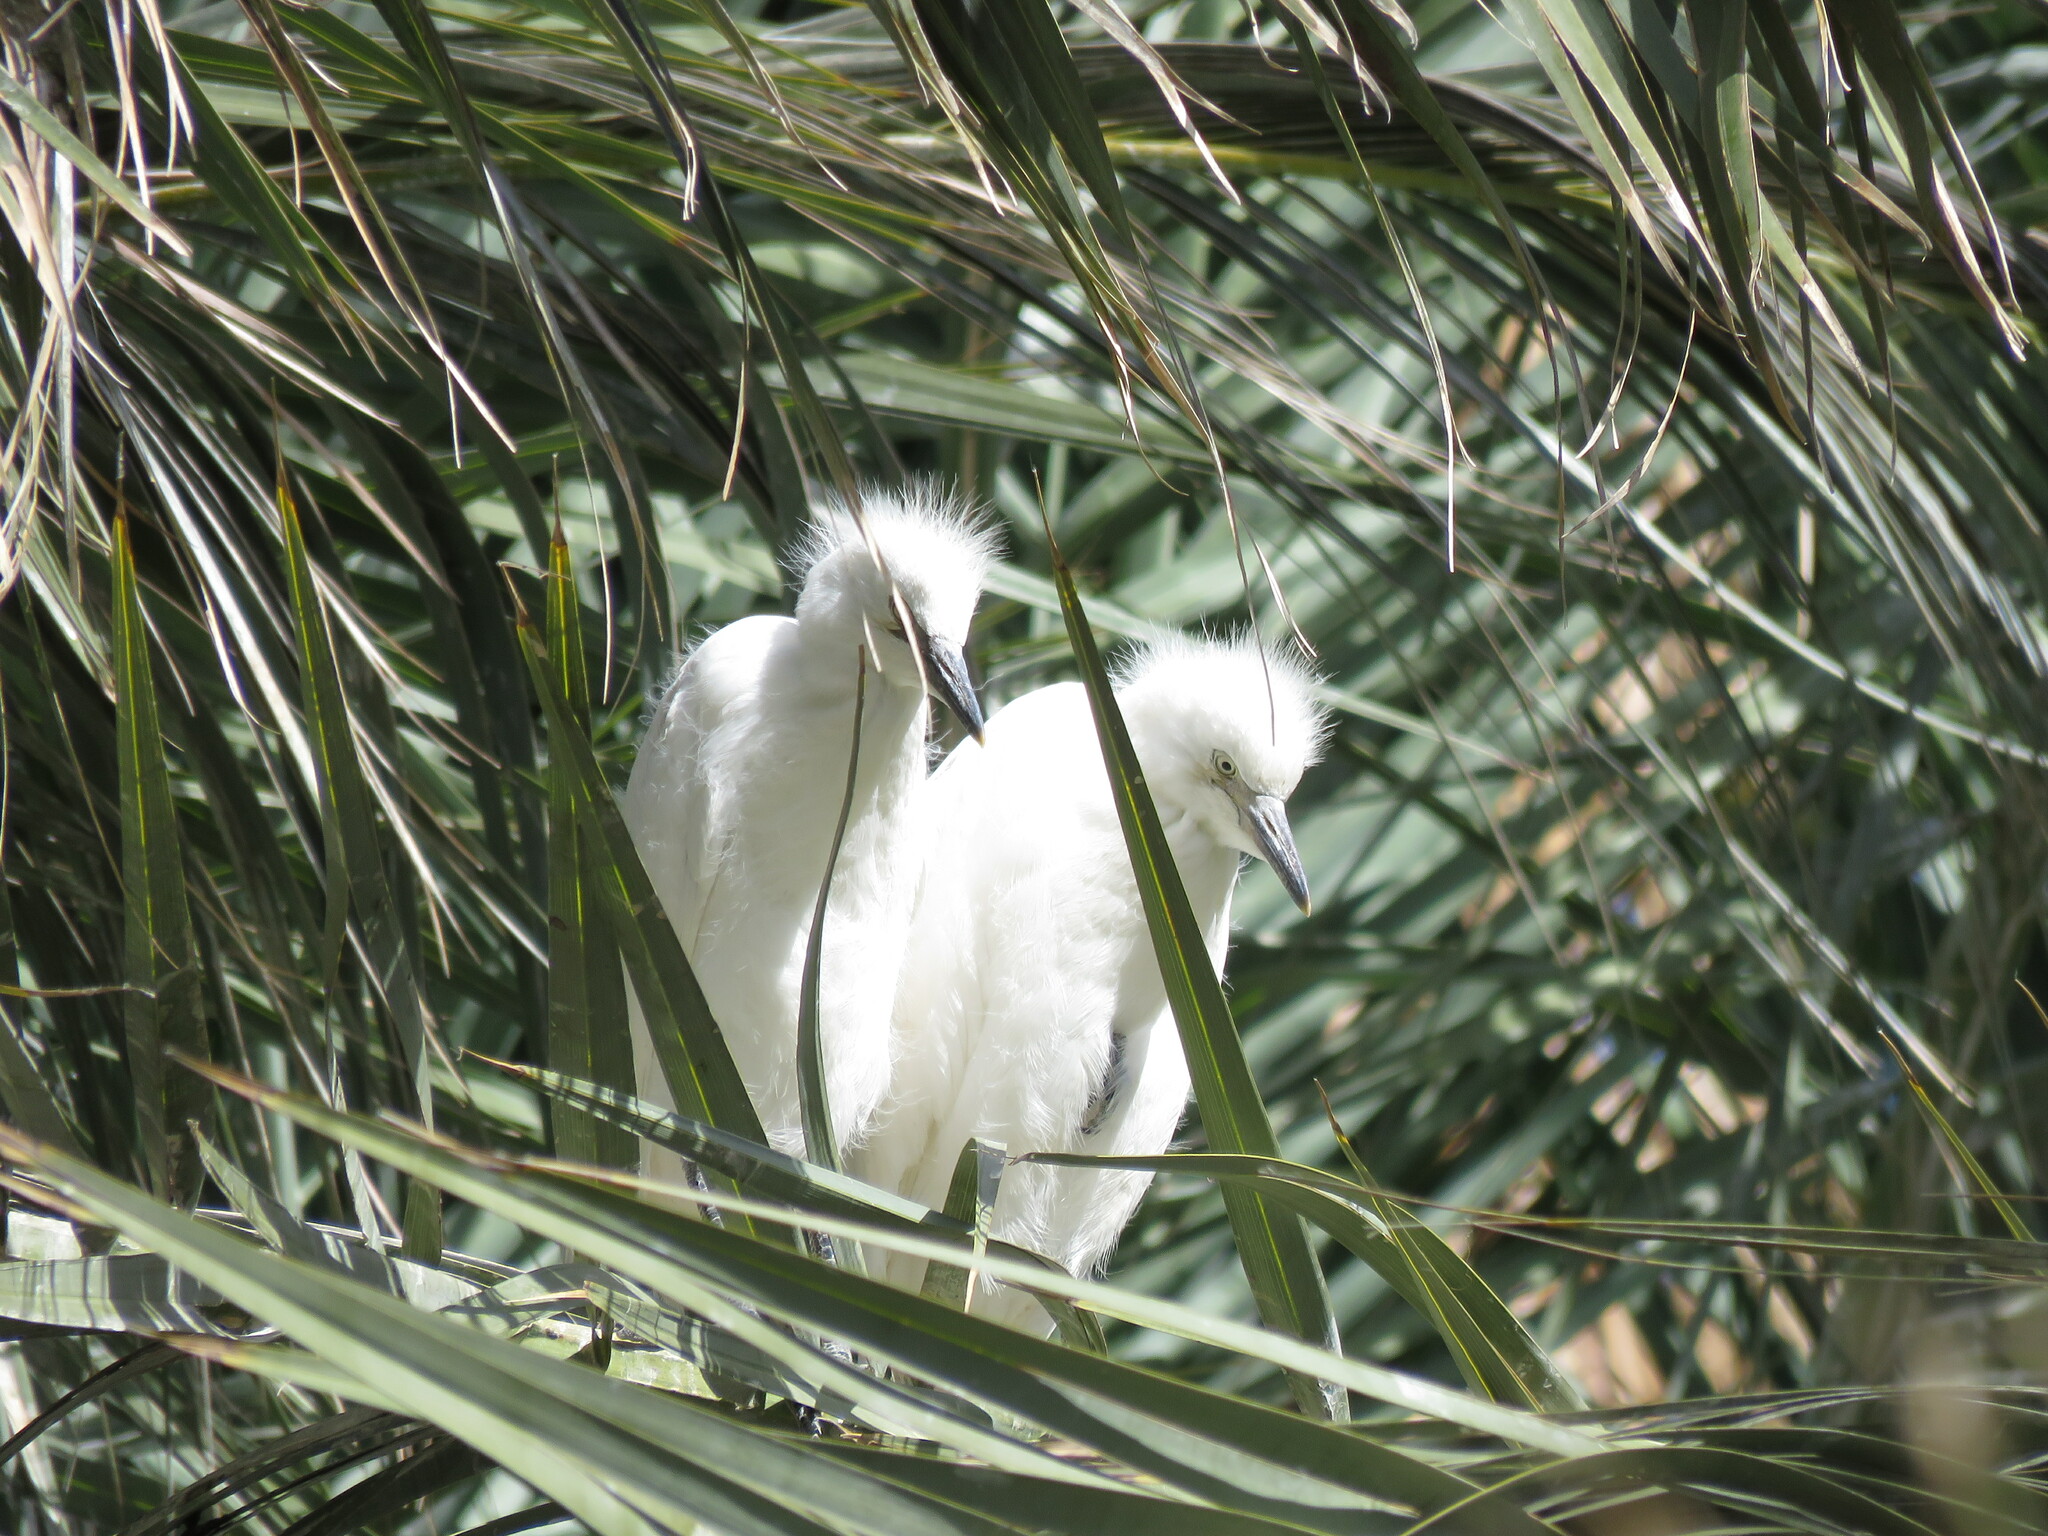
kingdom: Animalia
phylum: Chordata
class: Aves
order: Pelecaniformes
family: Ardeidae
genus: Bubulcus
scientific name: Bubulcus ibis
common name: Cattle egret
